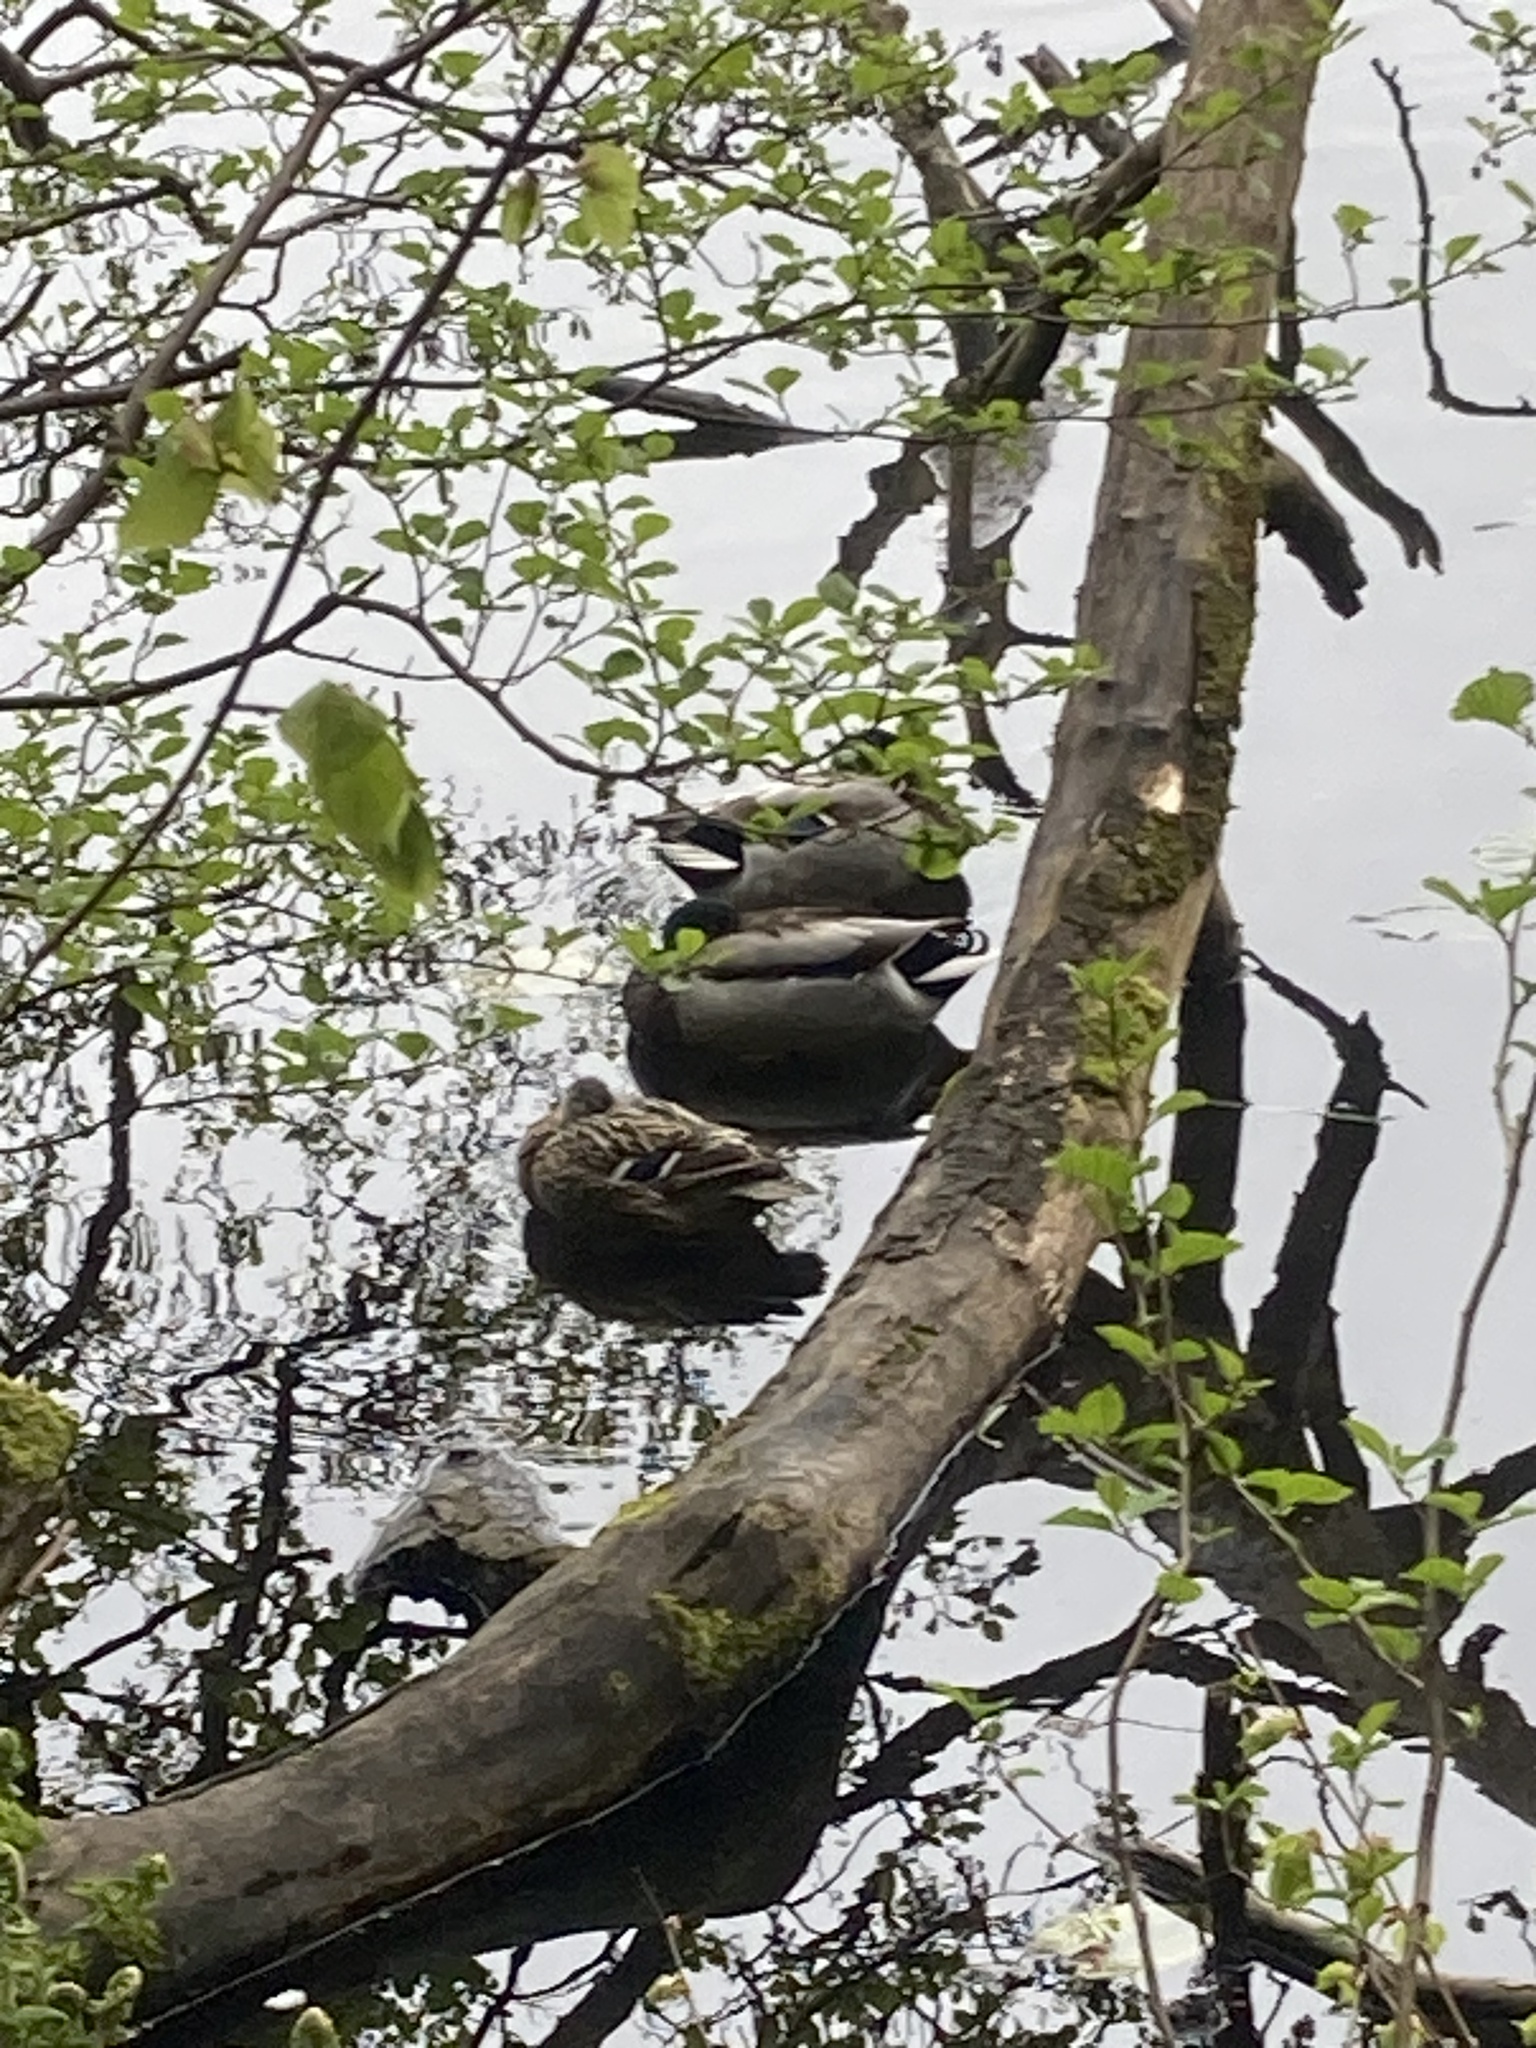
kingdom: Animalia
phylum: Chordata
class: Aves
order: Anseriformes
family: Anatidae
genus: Anas
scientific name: Anas platyrhynchos
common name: Mallard
